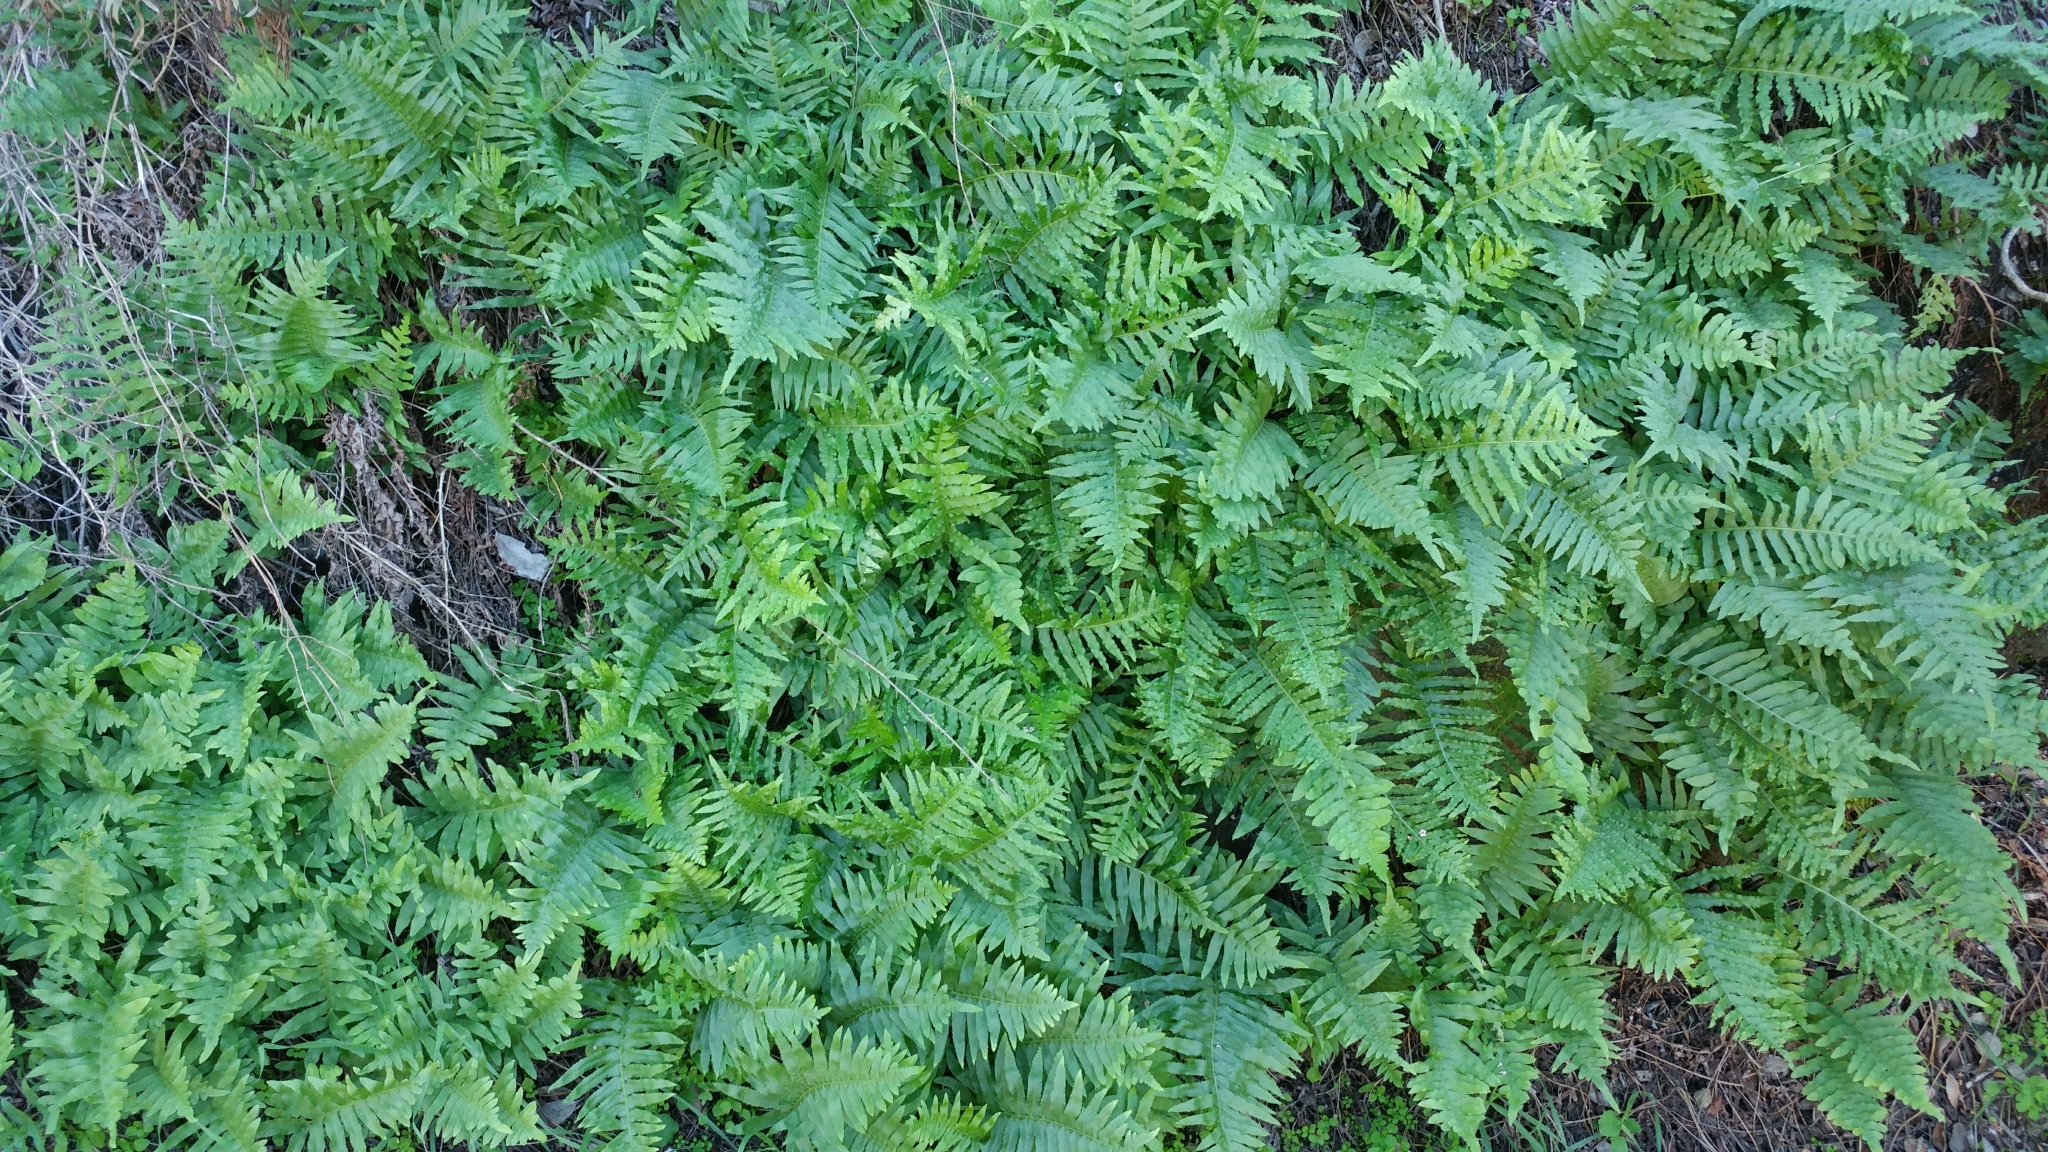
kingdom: Plantae
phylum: Tracheophyta
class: Polypodiopsida
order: Polypodiales
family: Polypodiaceae
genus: Polypodium
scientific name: Polypodium californicum
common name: California polypody
